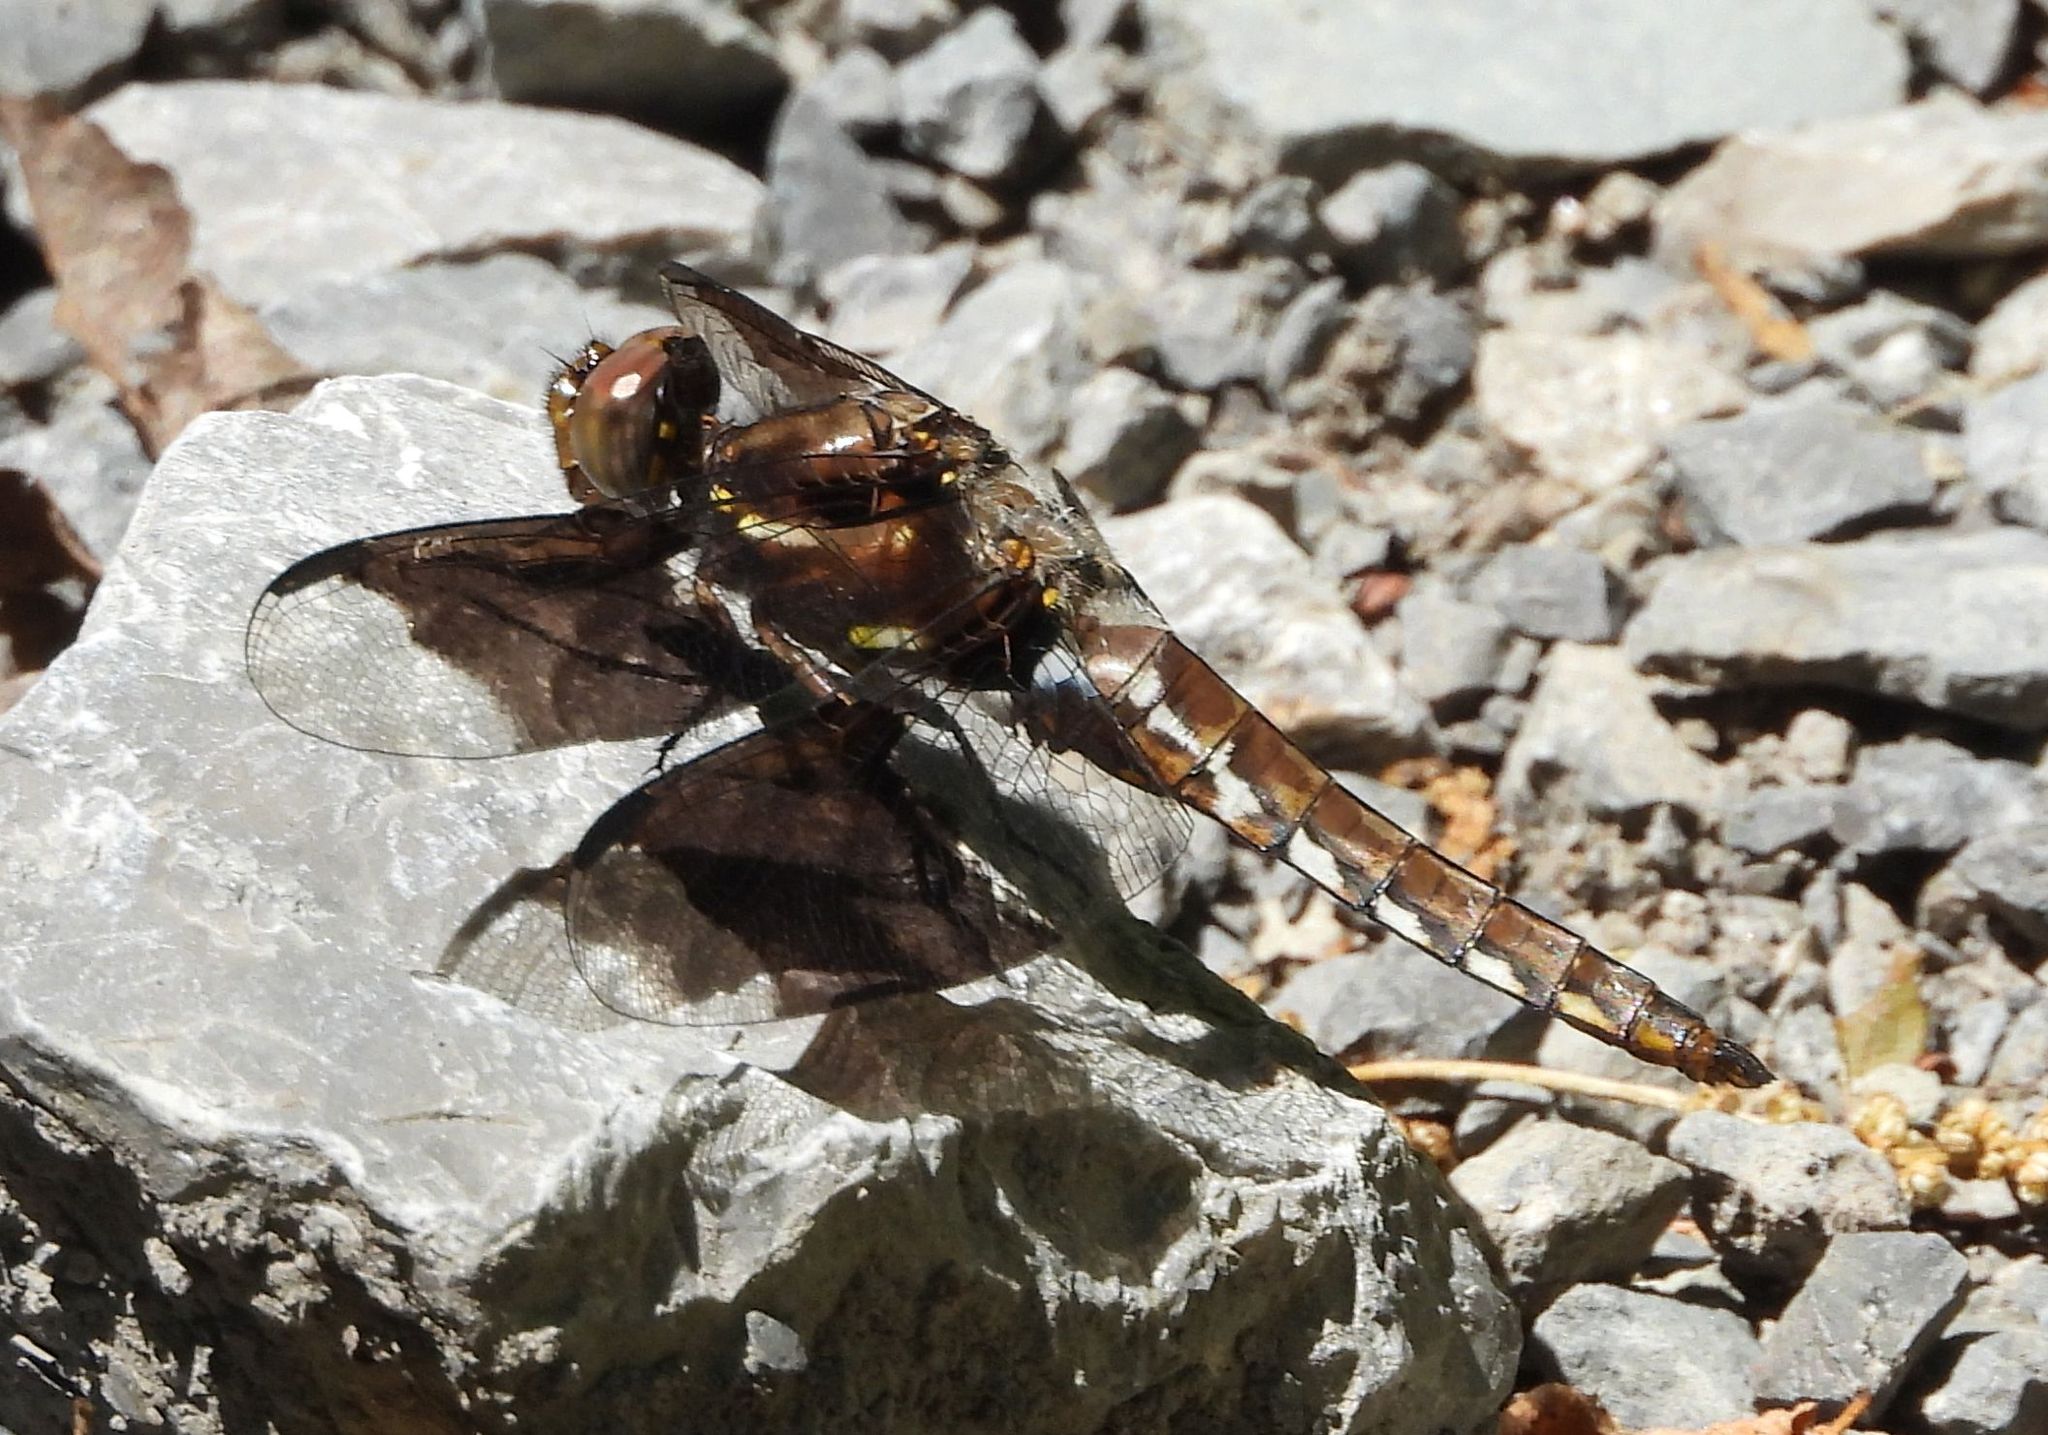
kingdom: Animalia
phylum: Arthropoda
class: Insecta
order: Odonata
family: Libellulidae
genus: Plathemis
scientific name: Plathemis lydia
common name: Common whitetail
